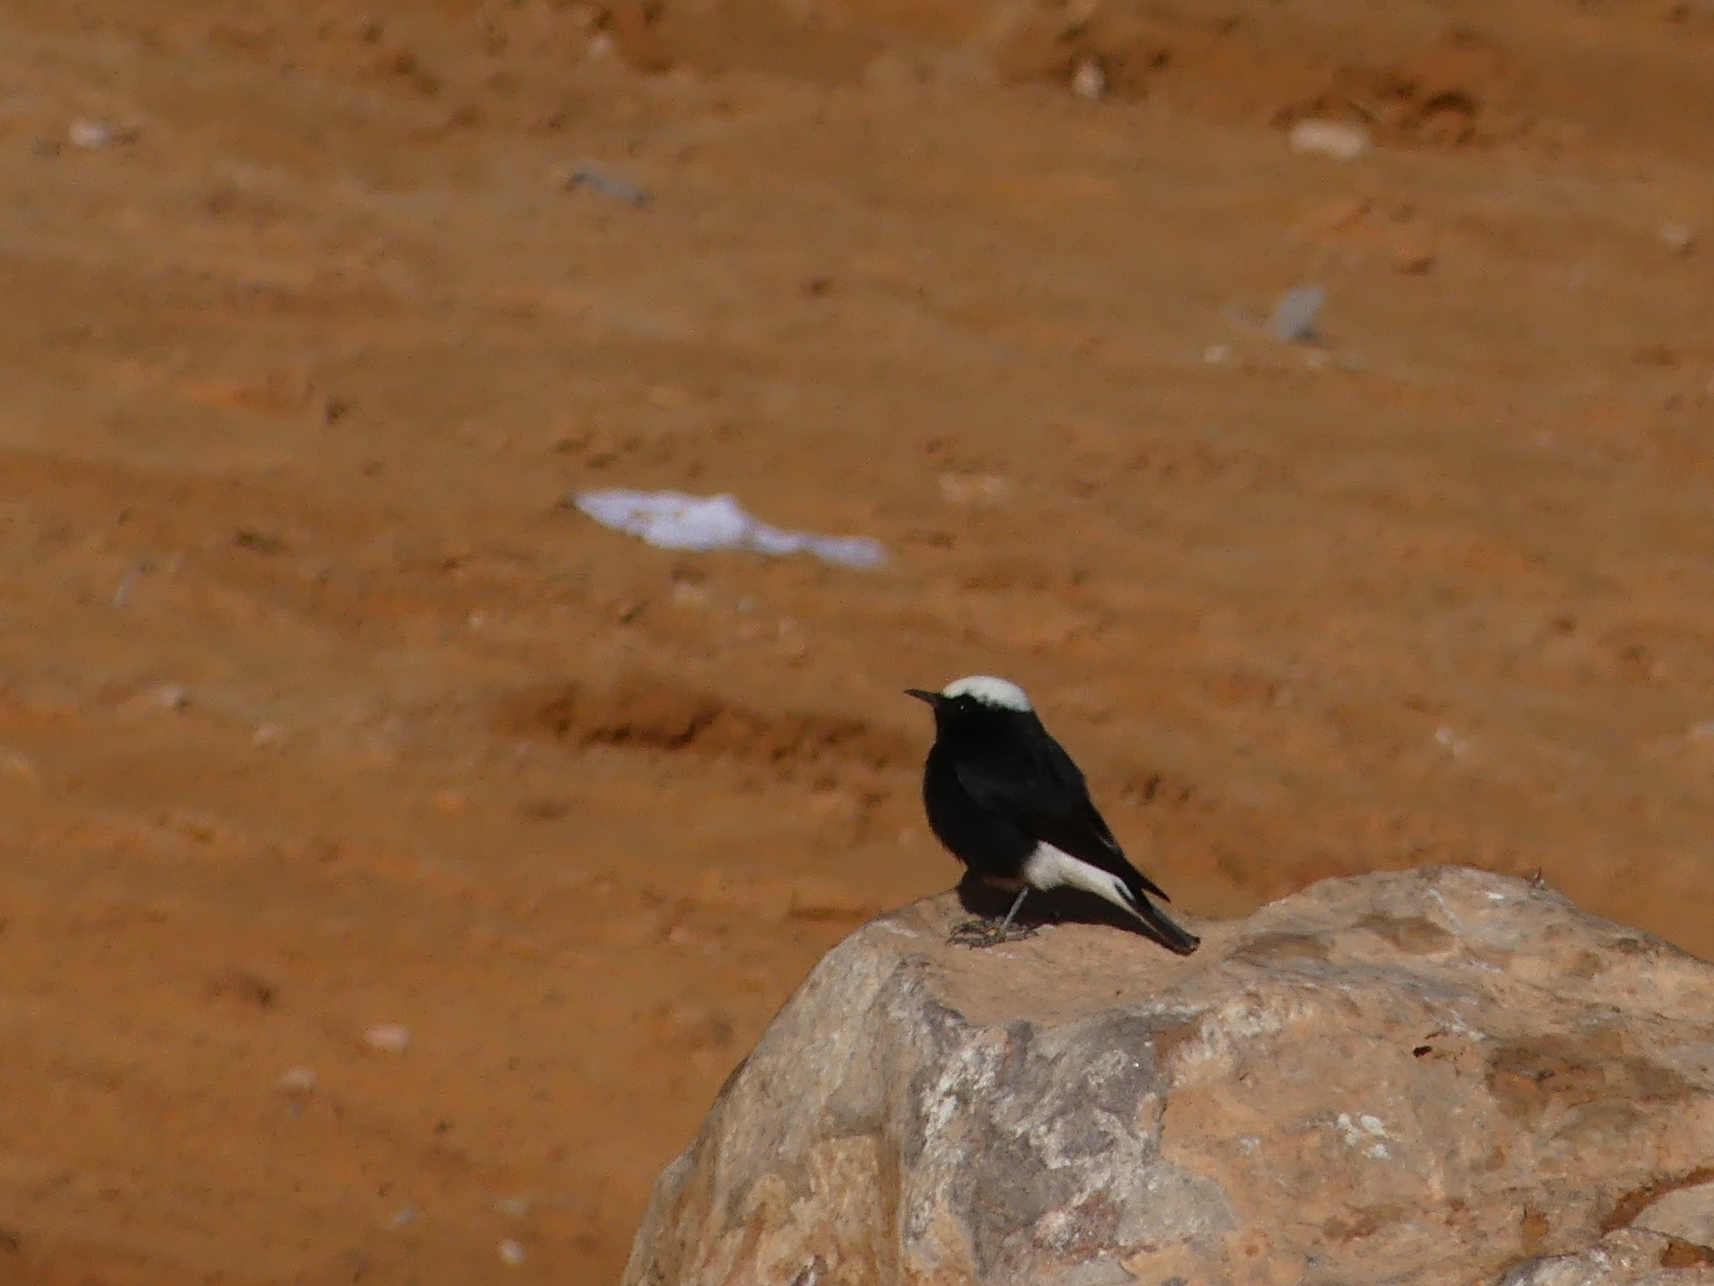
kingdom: Animalia
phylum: Chordata
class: Aves
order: Passeriformes
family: Muscicapidae
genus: Oenanthe
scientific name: Oenanthe leucopyga
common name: White-crowned wheatear
